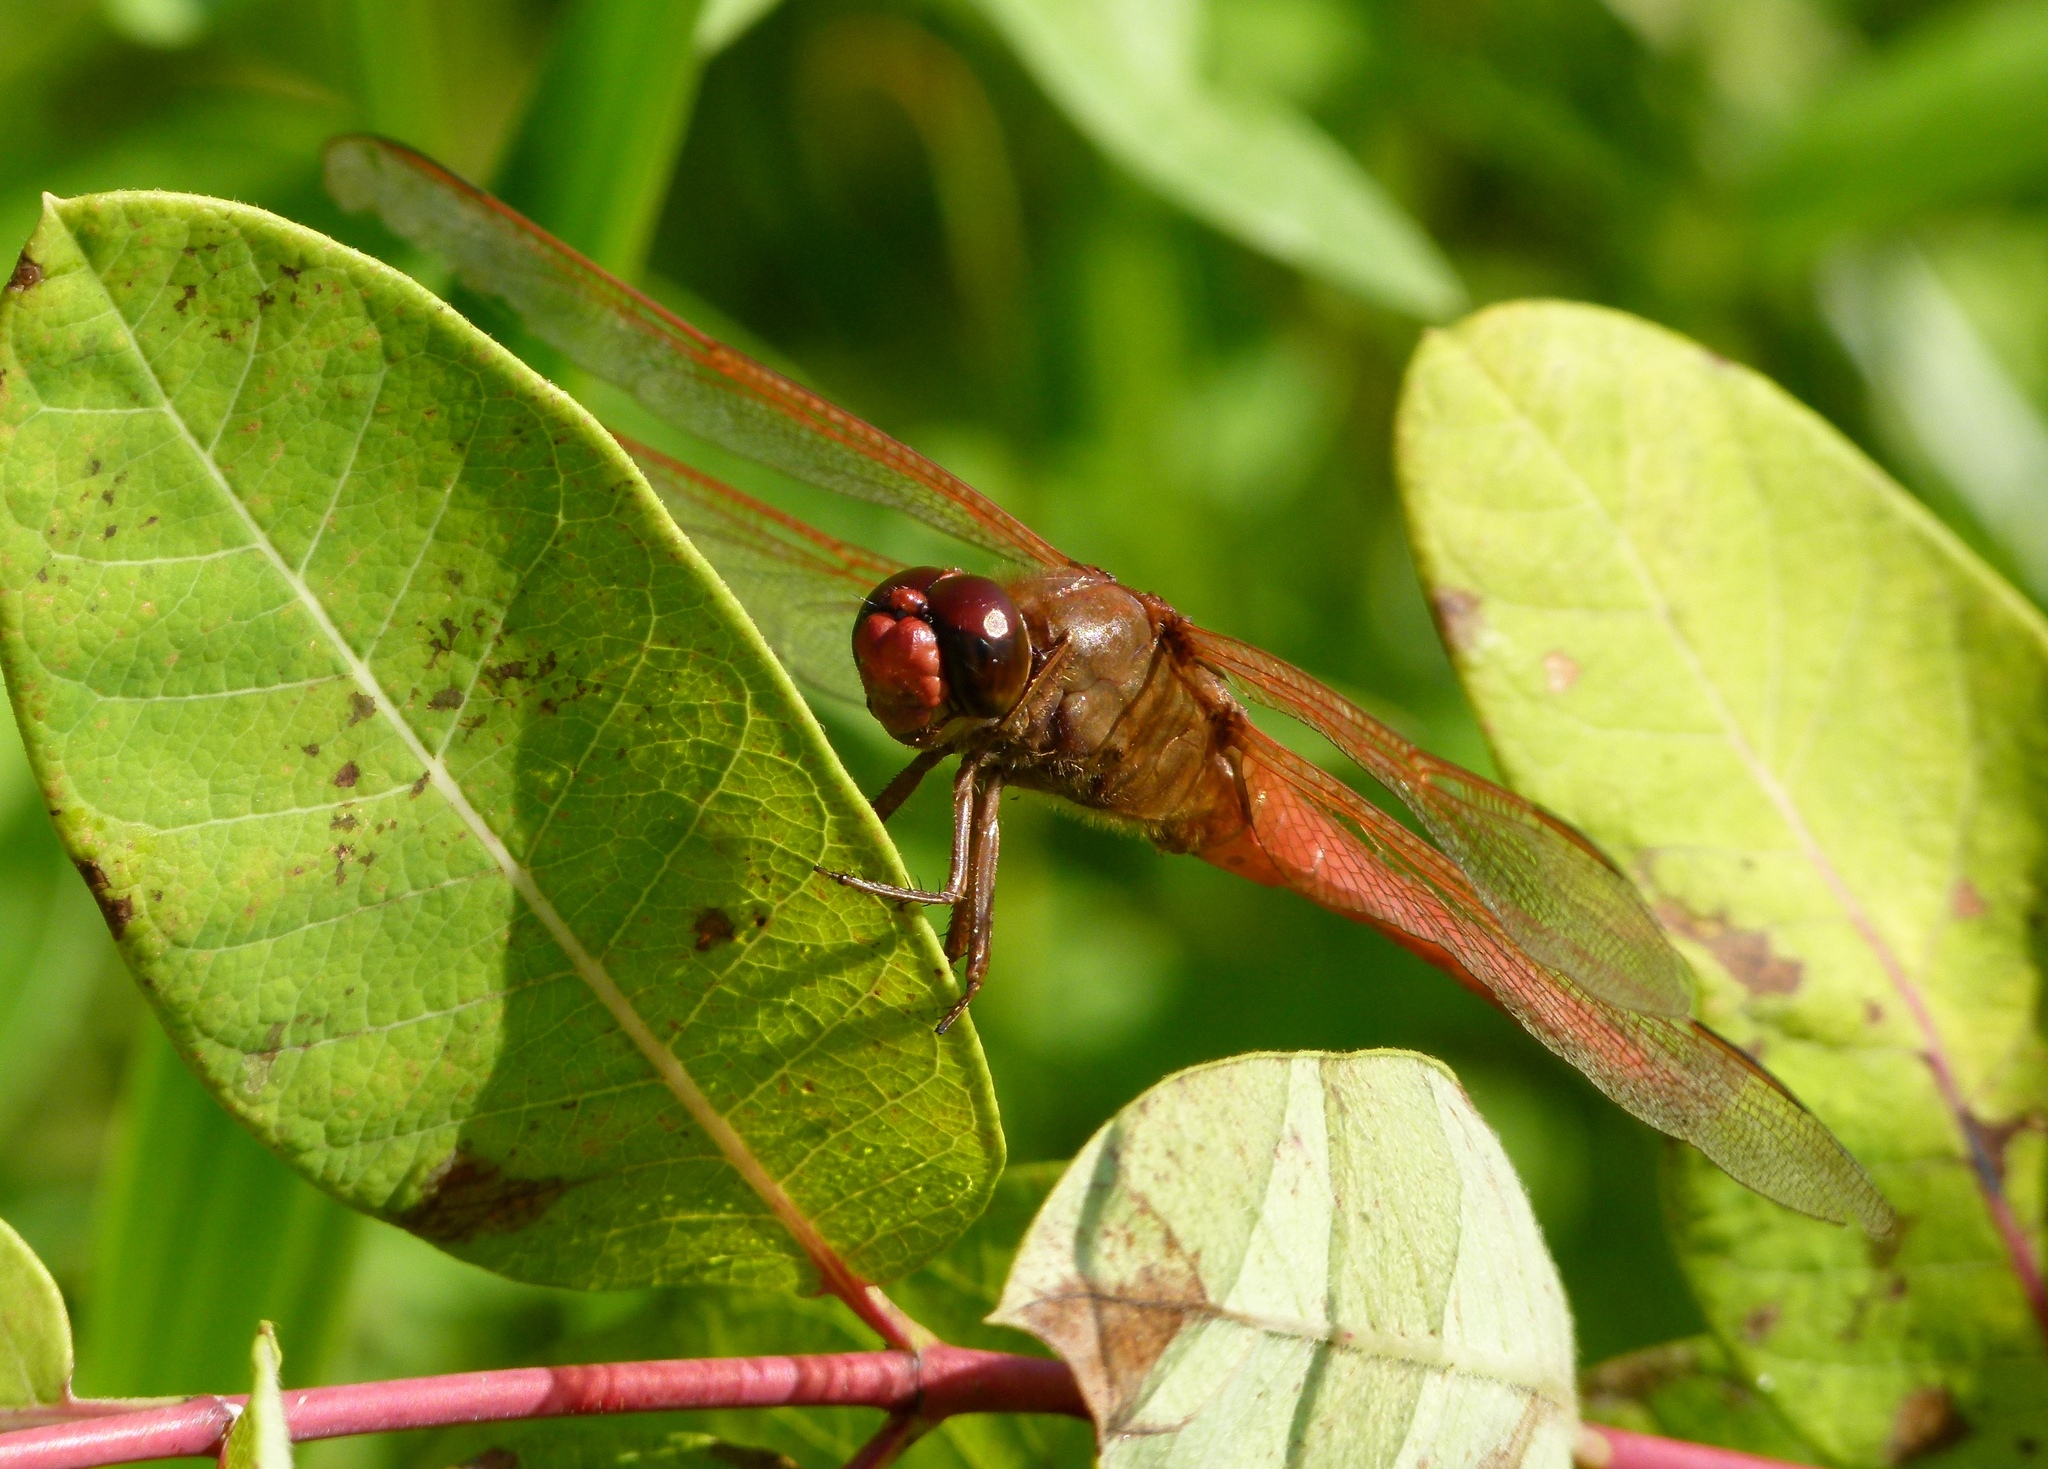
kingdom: Animalia
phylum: Arthropoda
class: Insecta
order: Odonata
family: Libellulidae
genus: Libellula
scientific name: Libellula needhami
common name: Needham's skimmer
